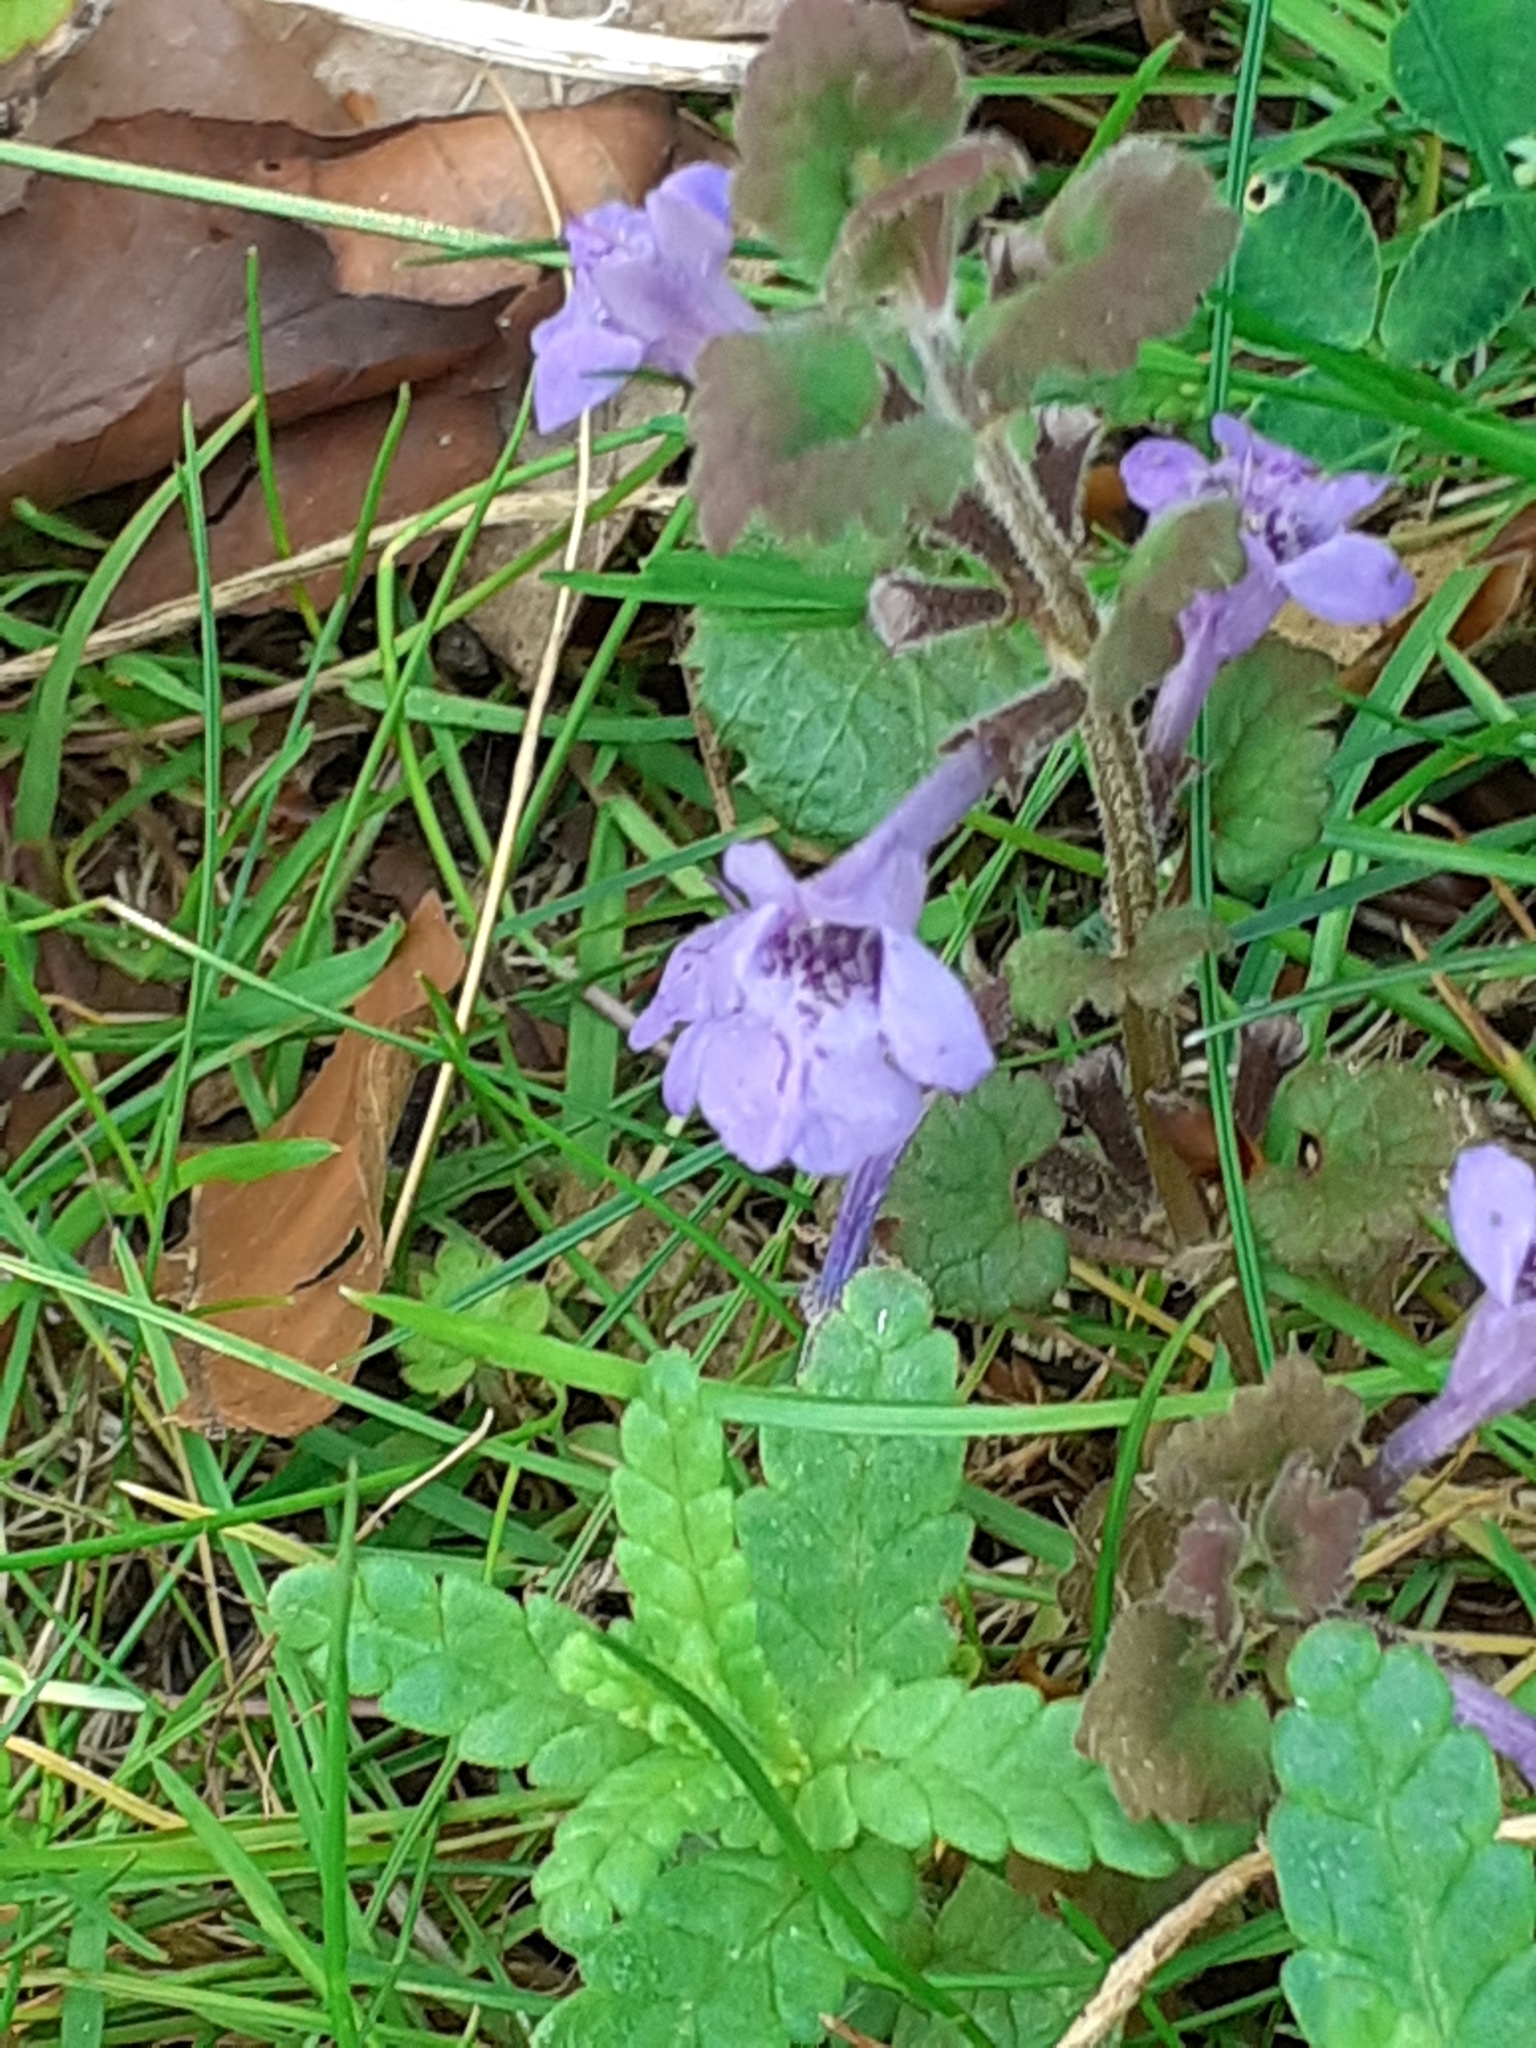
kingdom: Plantae
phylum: Tracheophyta
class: Magnoliopsida
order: Lamiales
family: Lamiaceae
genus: Glechoma
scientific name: Glechoma hederacea
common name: Ground ivy
